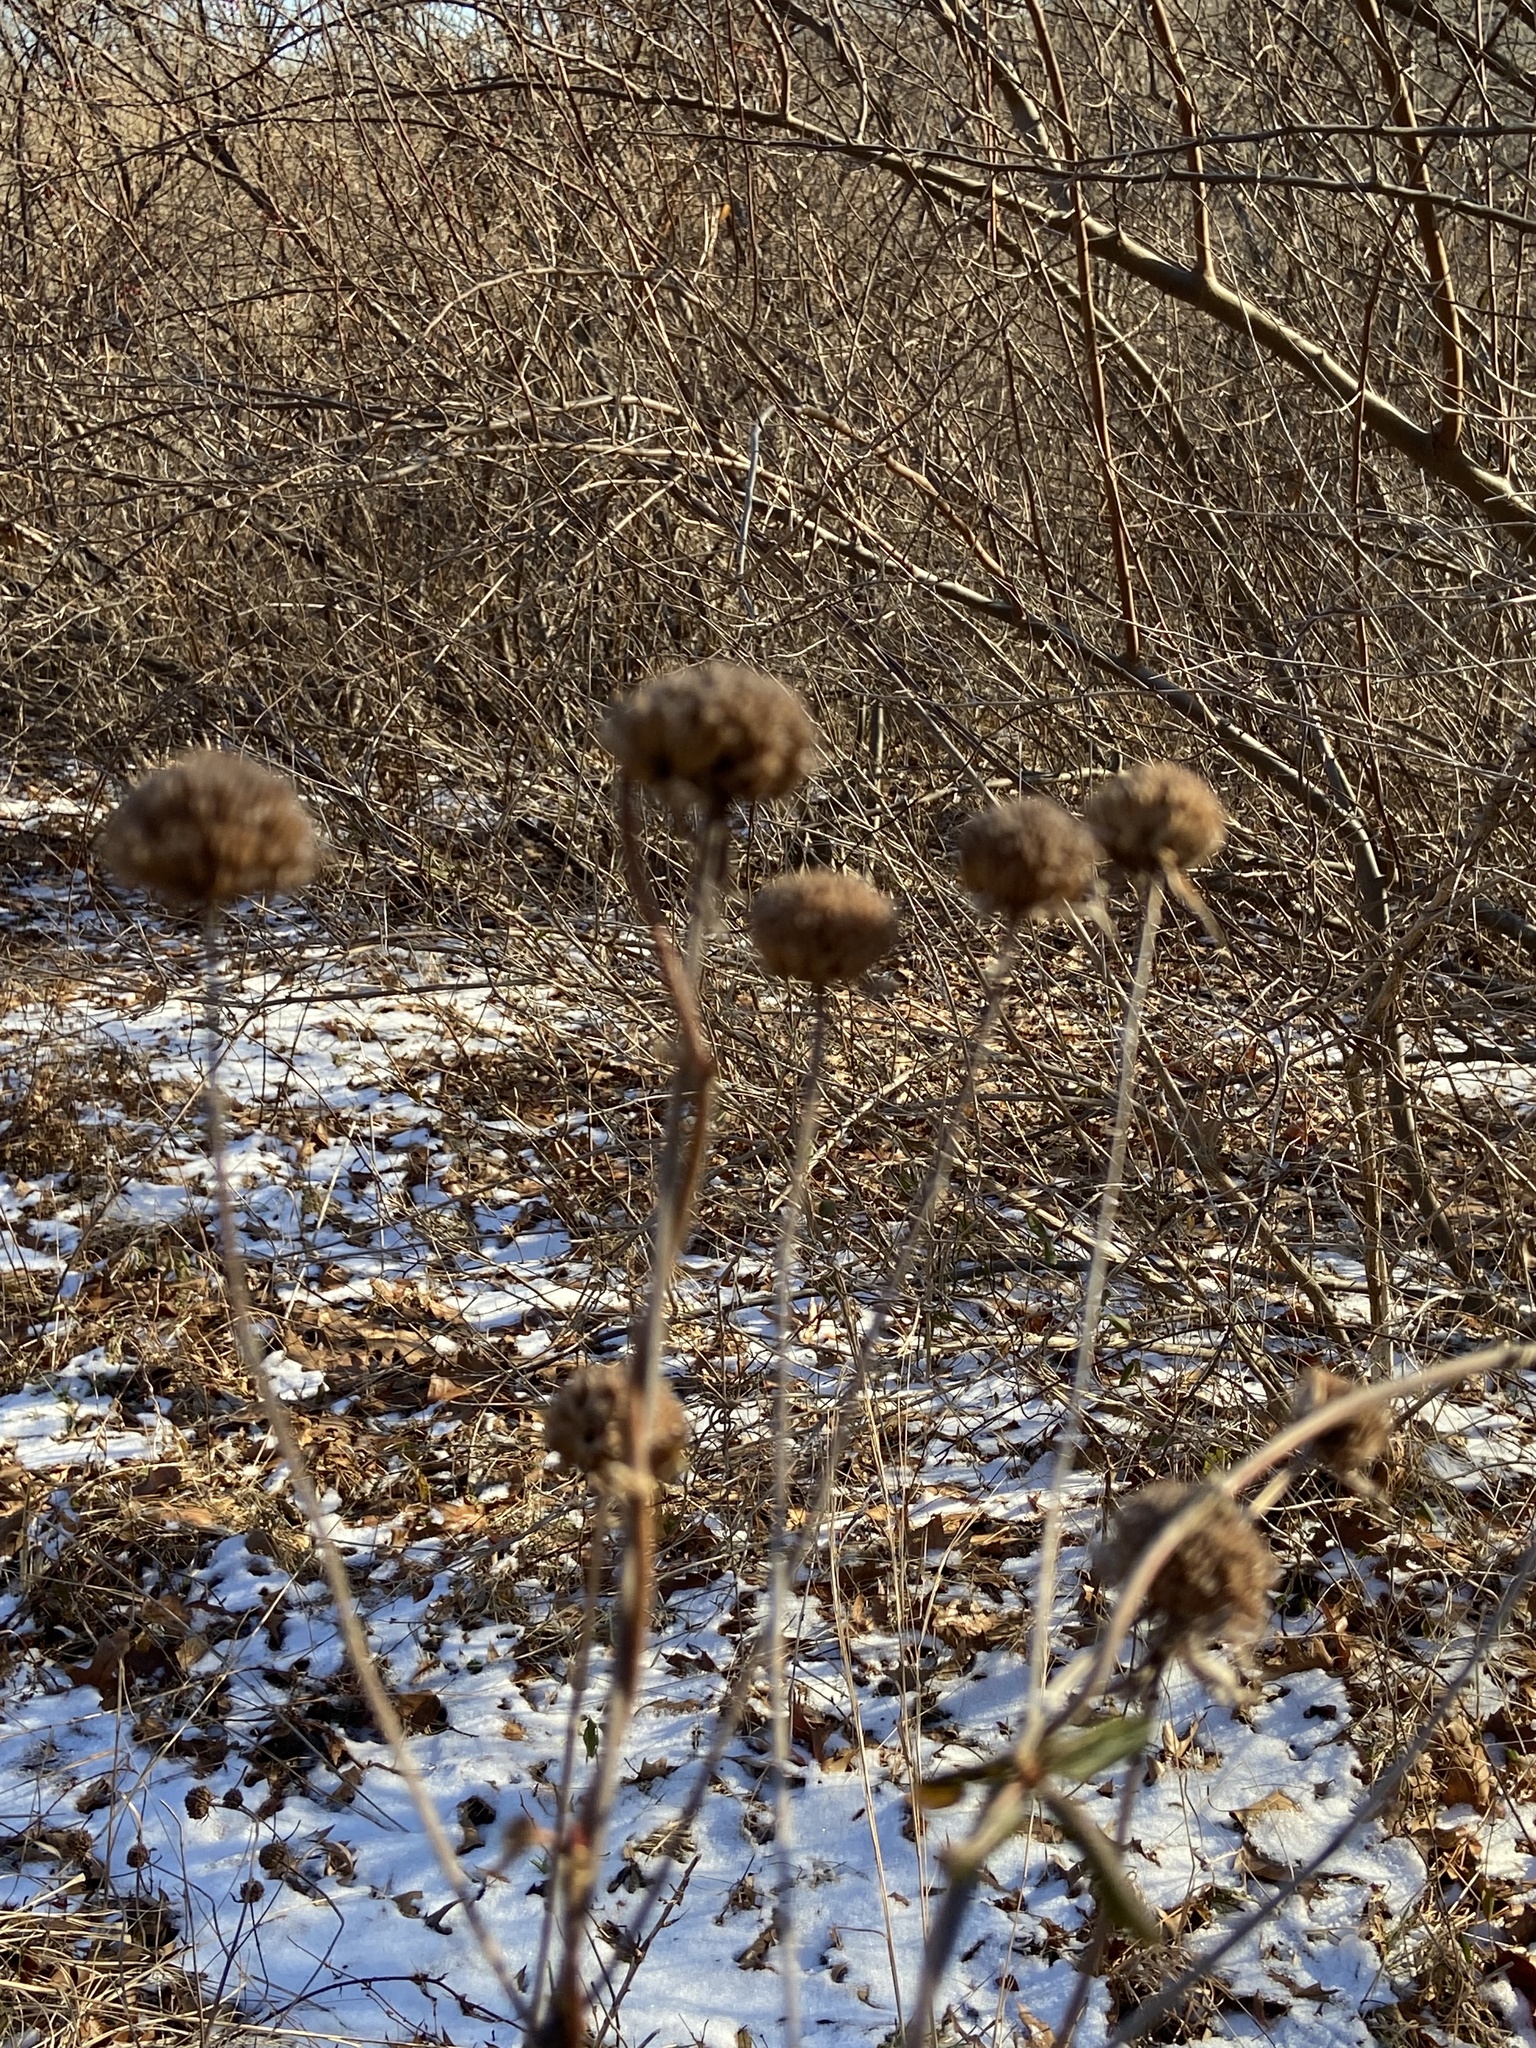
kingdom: Plantae
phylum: Tracheophyta
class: Magnoliopsida
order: Lamiales
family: Lamiaceae
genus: Monarda
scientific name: Monarda fistulosa
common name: Purple beebalm
